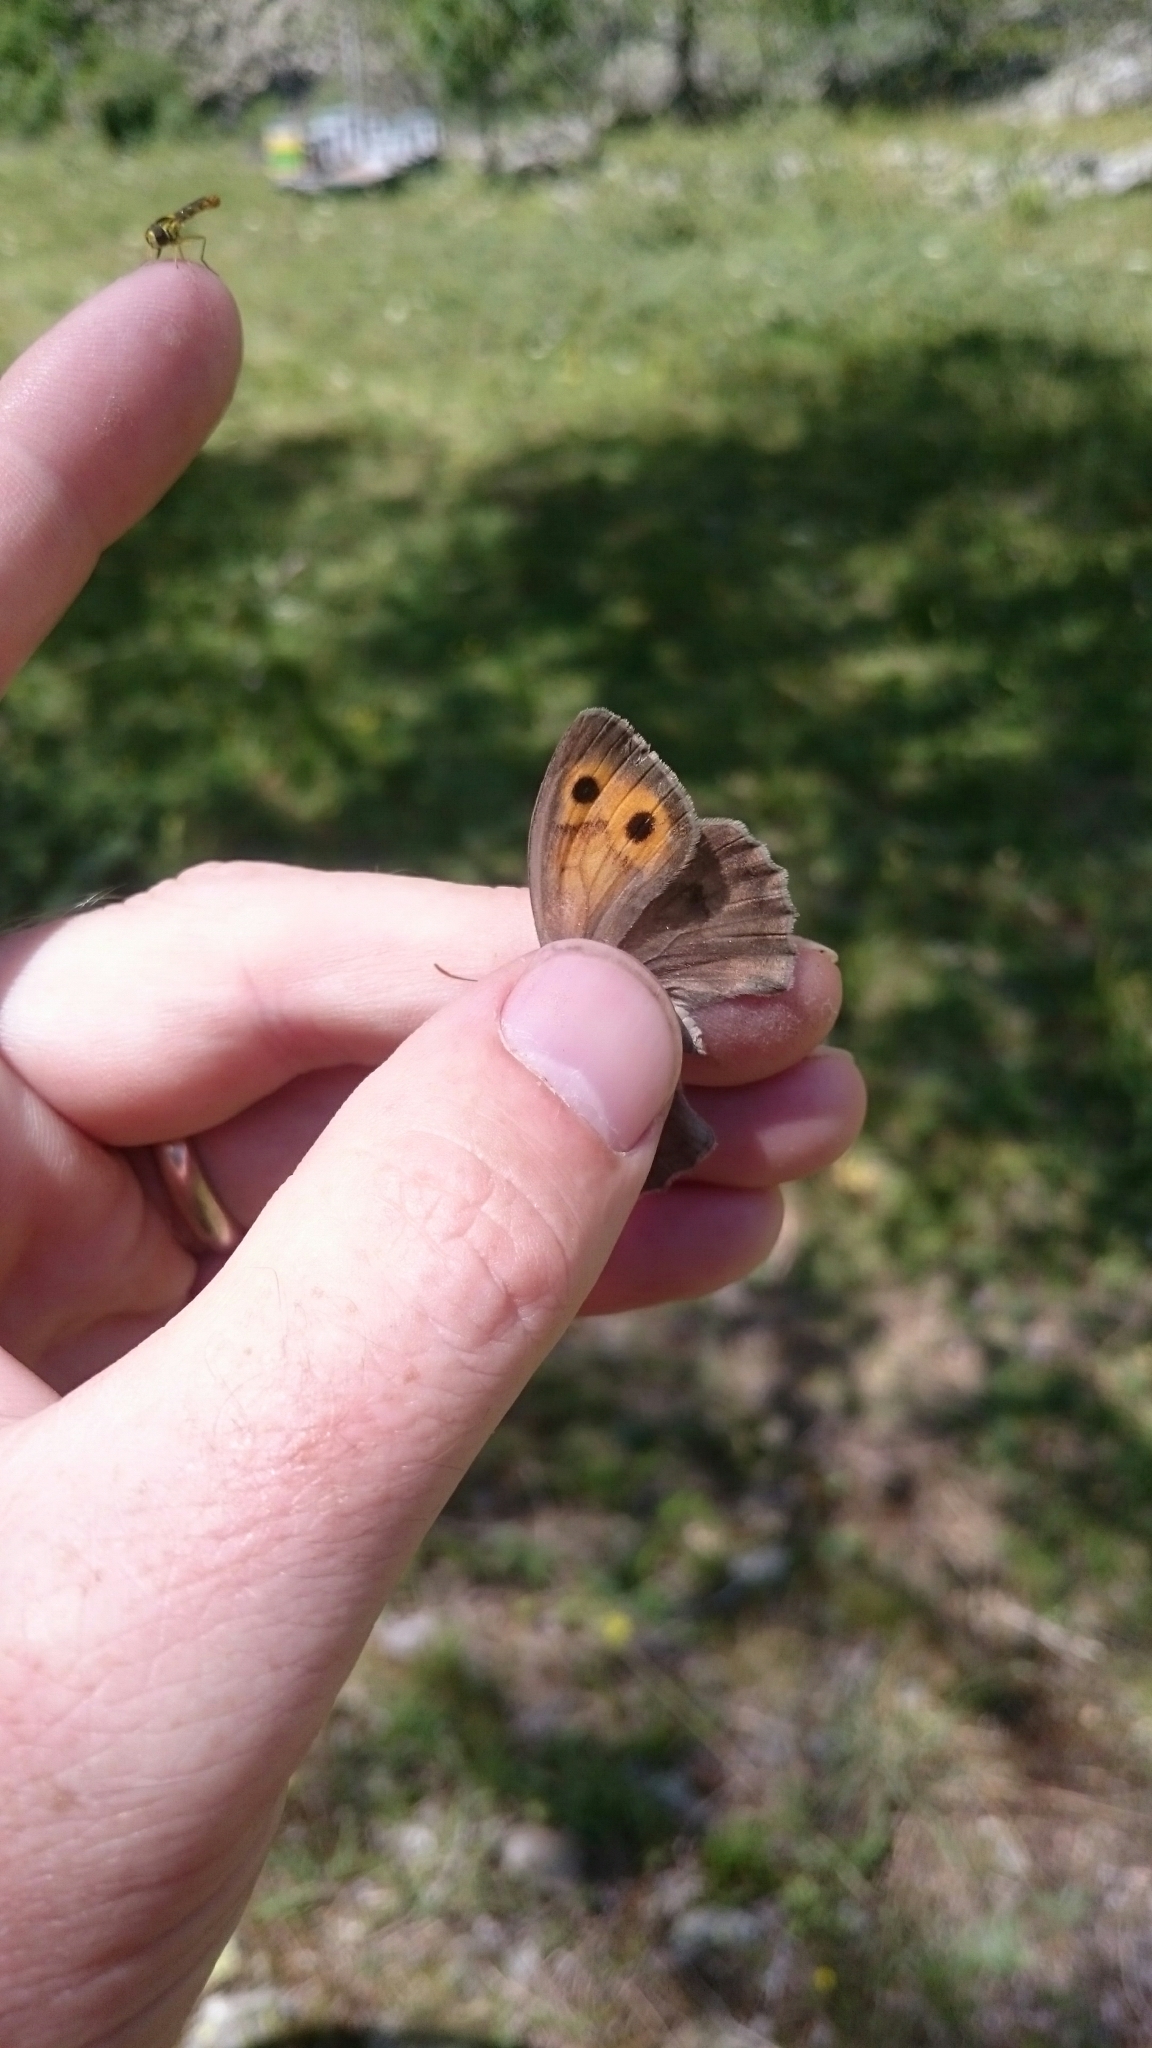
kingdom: Animalia
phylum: Arthropoda
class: Insecta
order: Lepidoptera
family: Nymphalidae
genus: Hyponephele
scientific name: Hyponephele lycaon
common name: Dusky meadow brown
